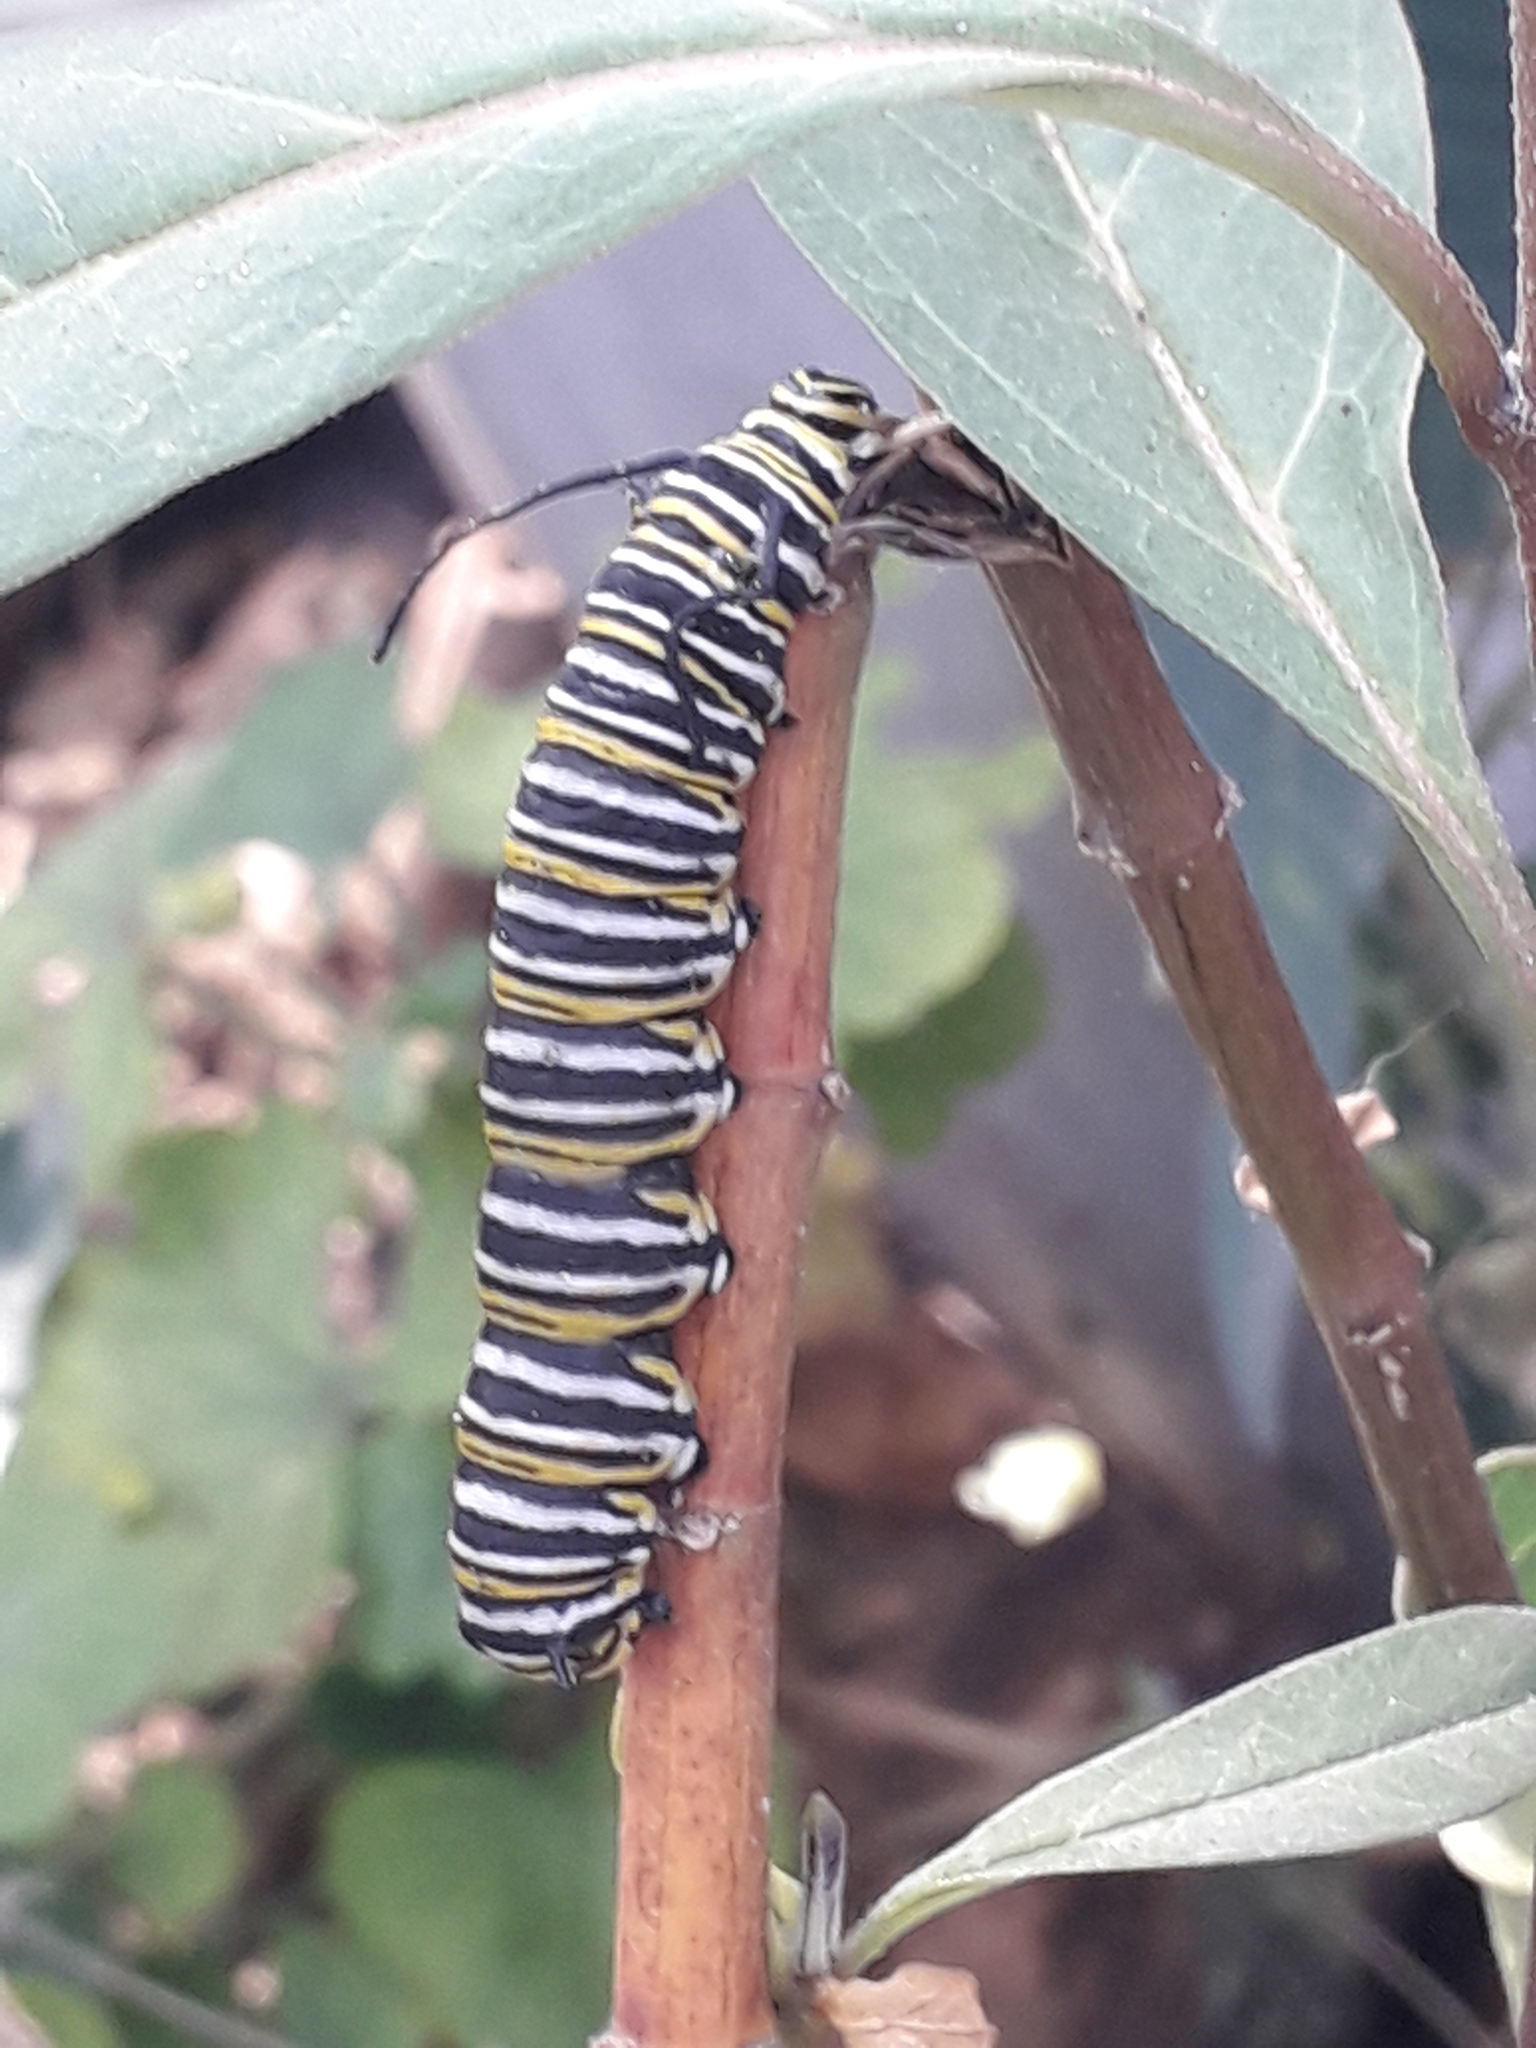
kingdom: Animalia
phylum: Arthropoda
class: Insecta
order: Lepidoptera
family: Nymphalidae
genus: Danaus
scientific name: Danaus plexippus
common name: Monarch
